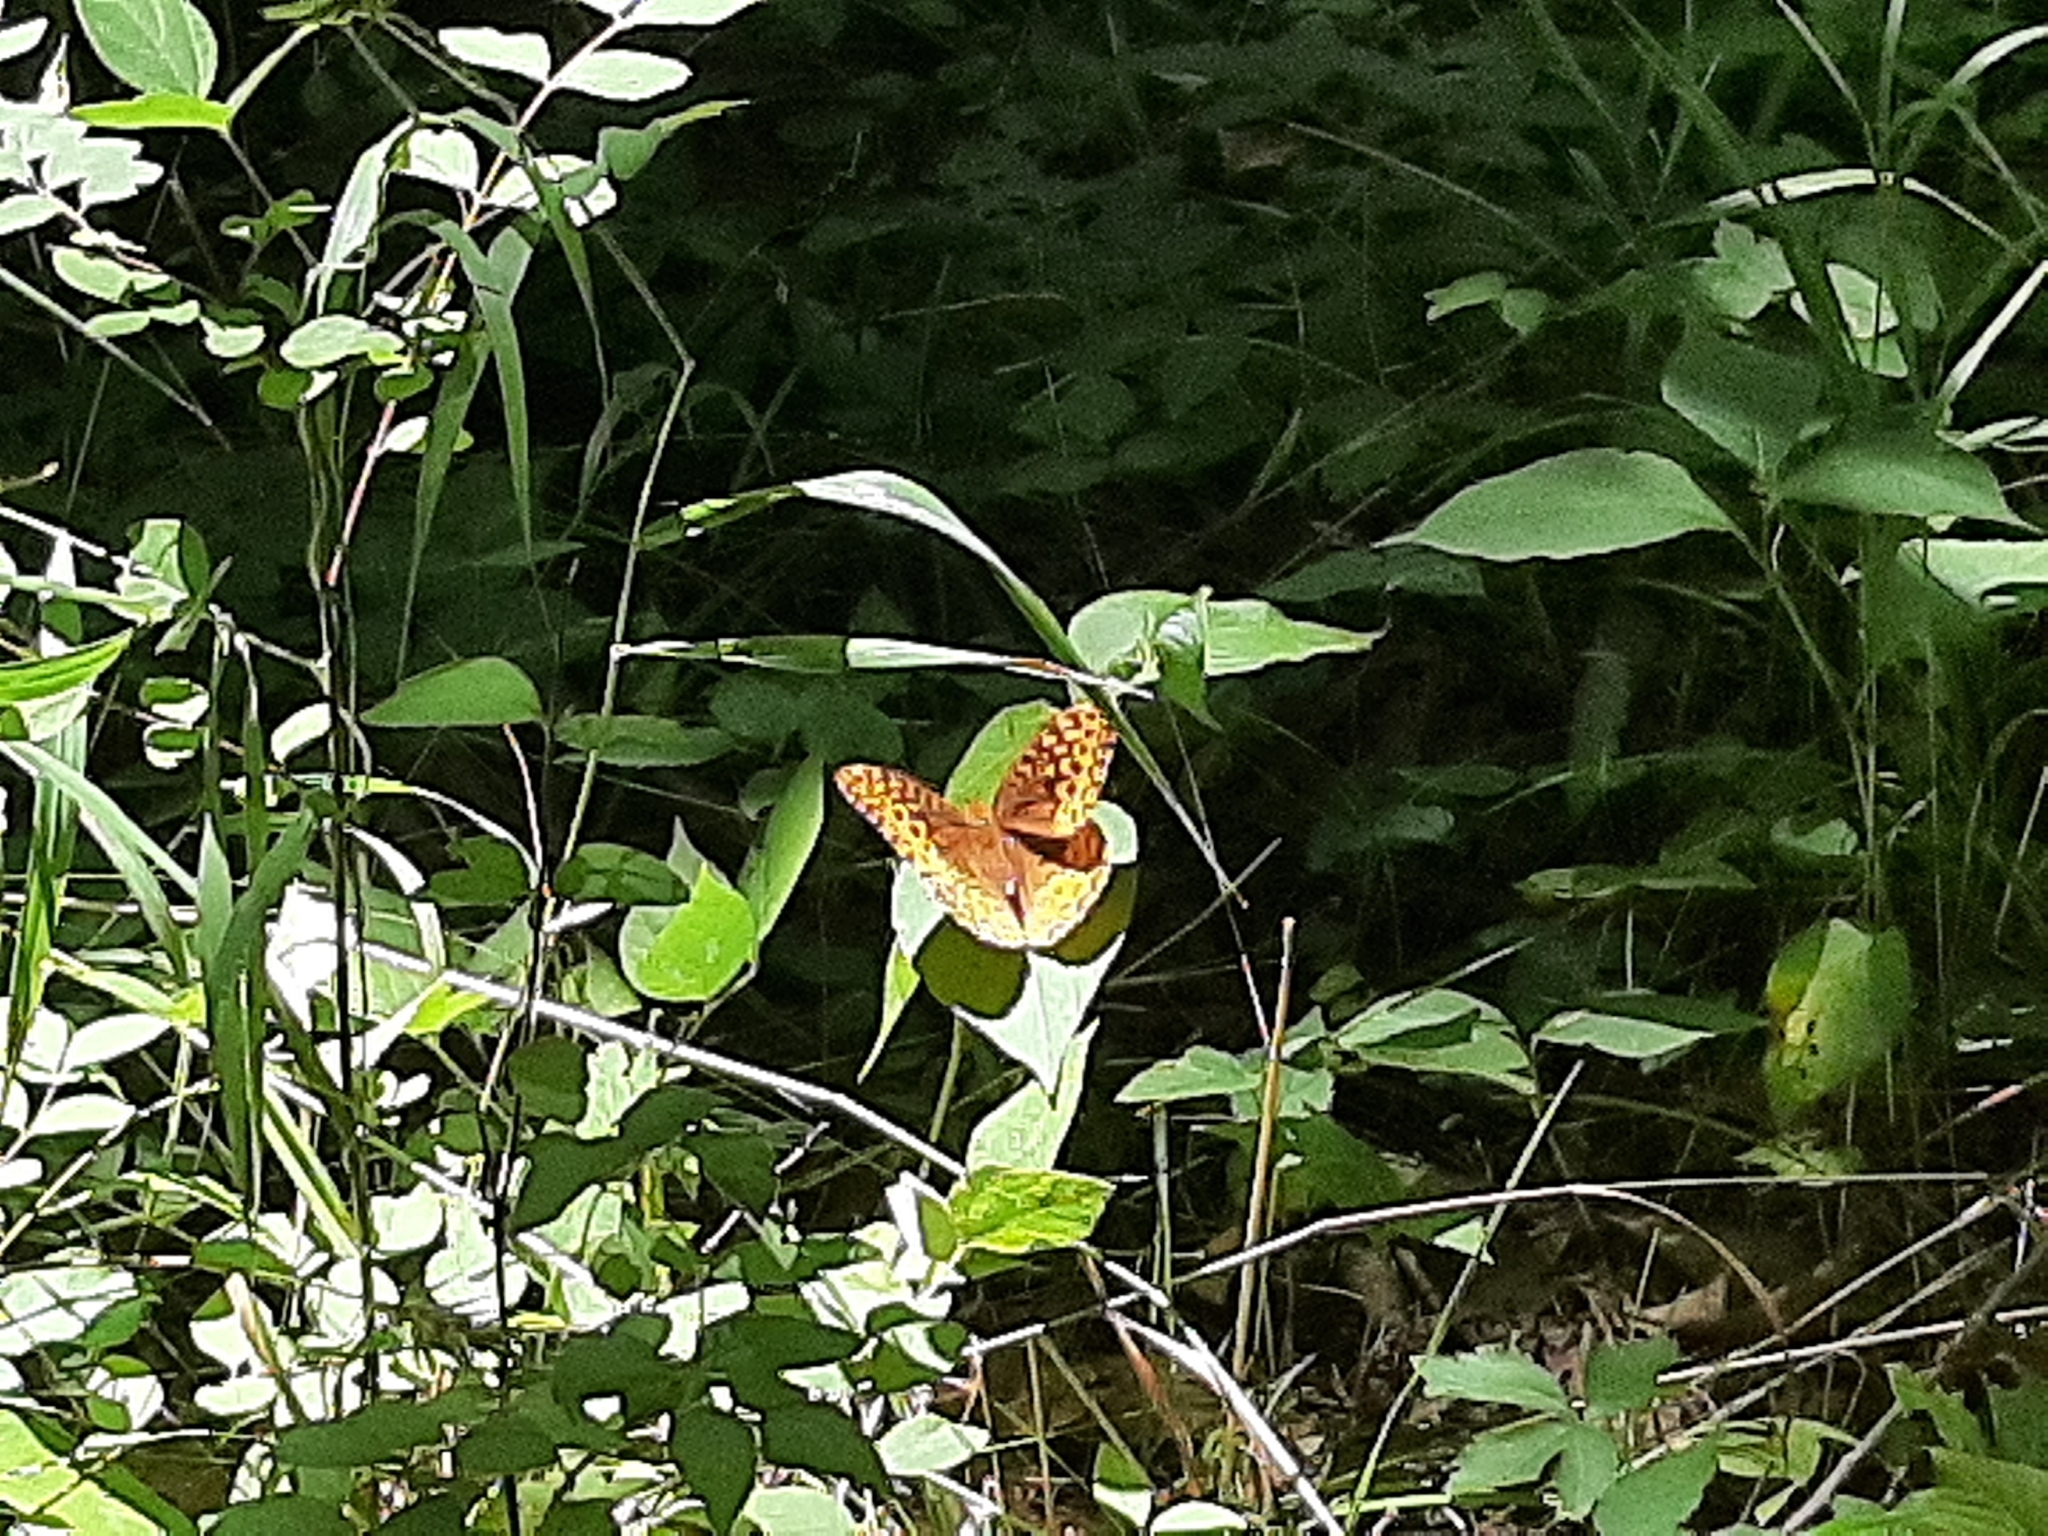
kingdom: Animalia
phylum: Arthropoda
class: Insecta
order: Lepidoptera
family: Nymphalidae
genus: Speyeria
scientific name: Speyeria cybele
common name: Great spangled fritillary
